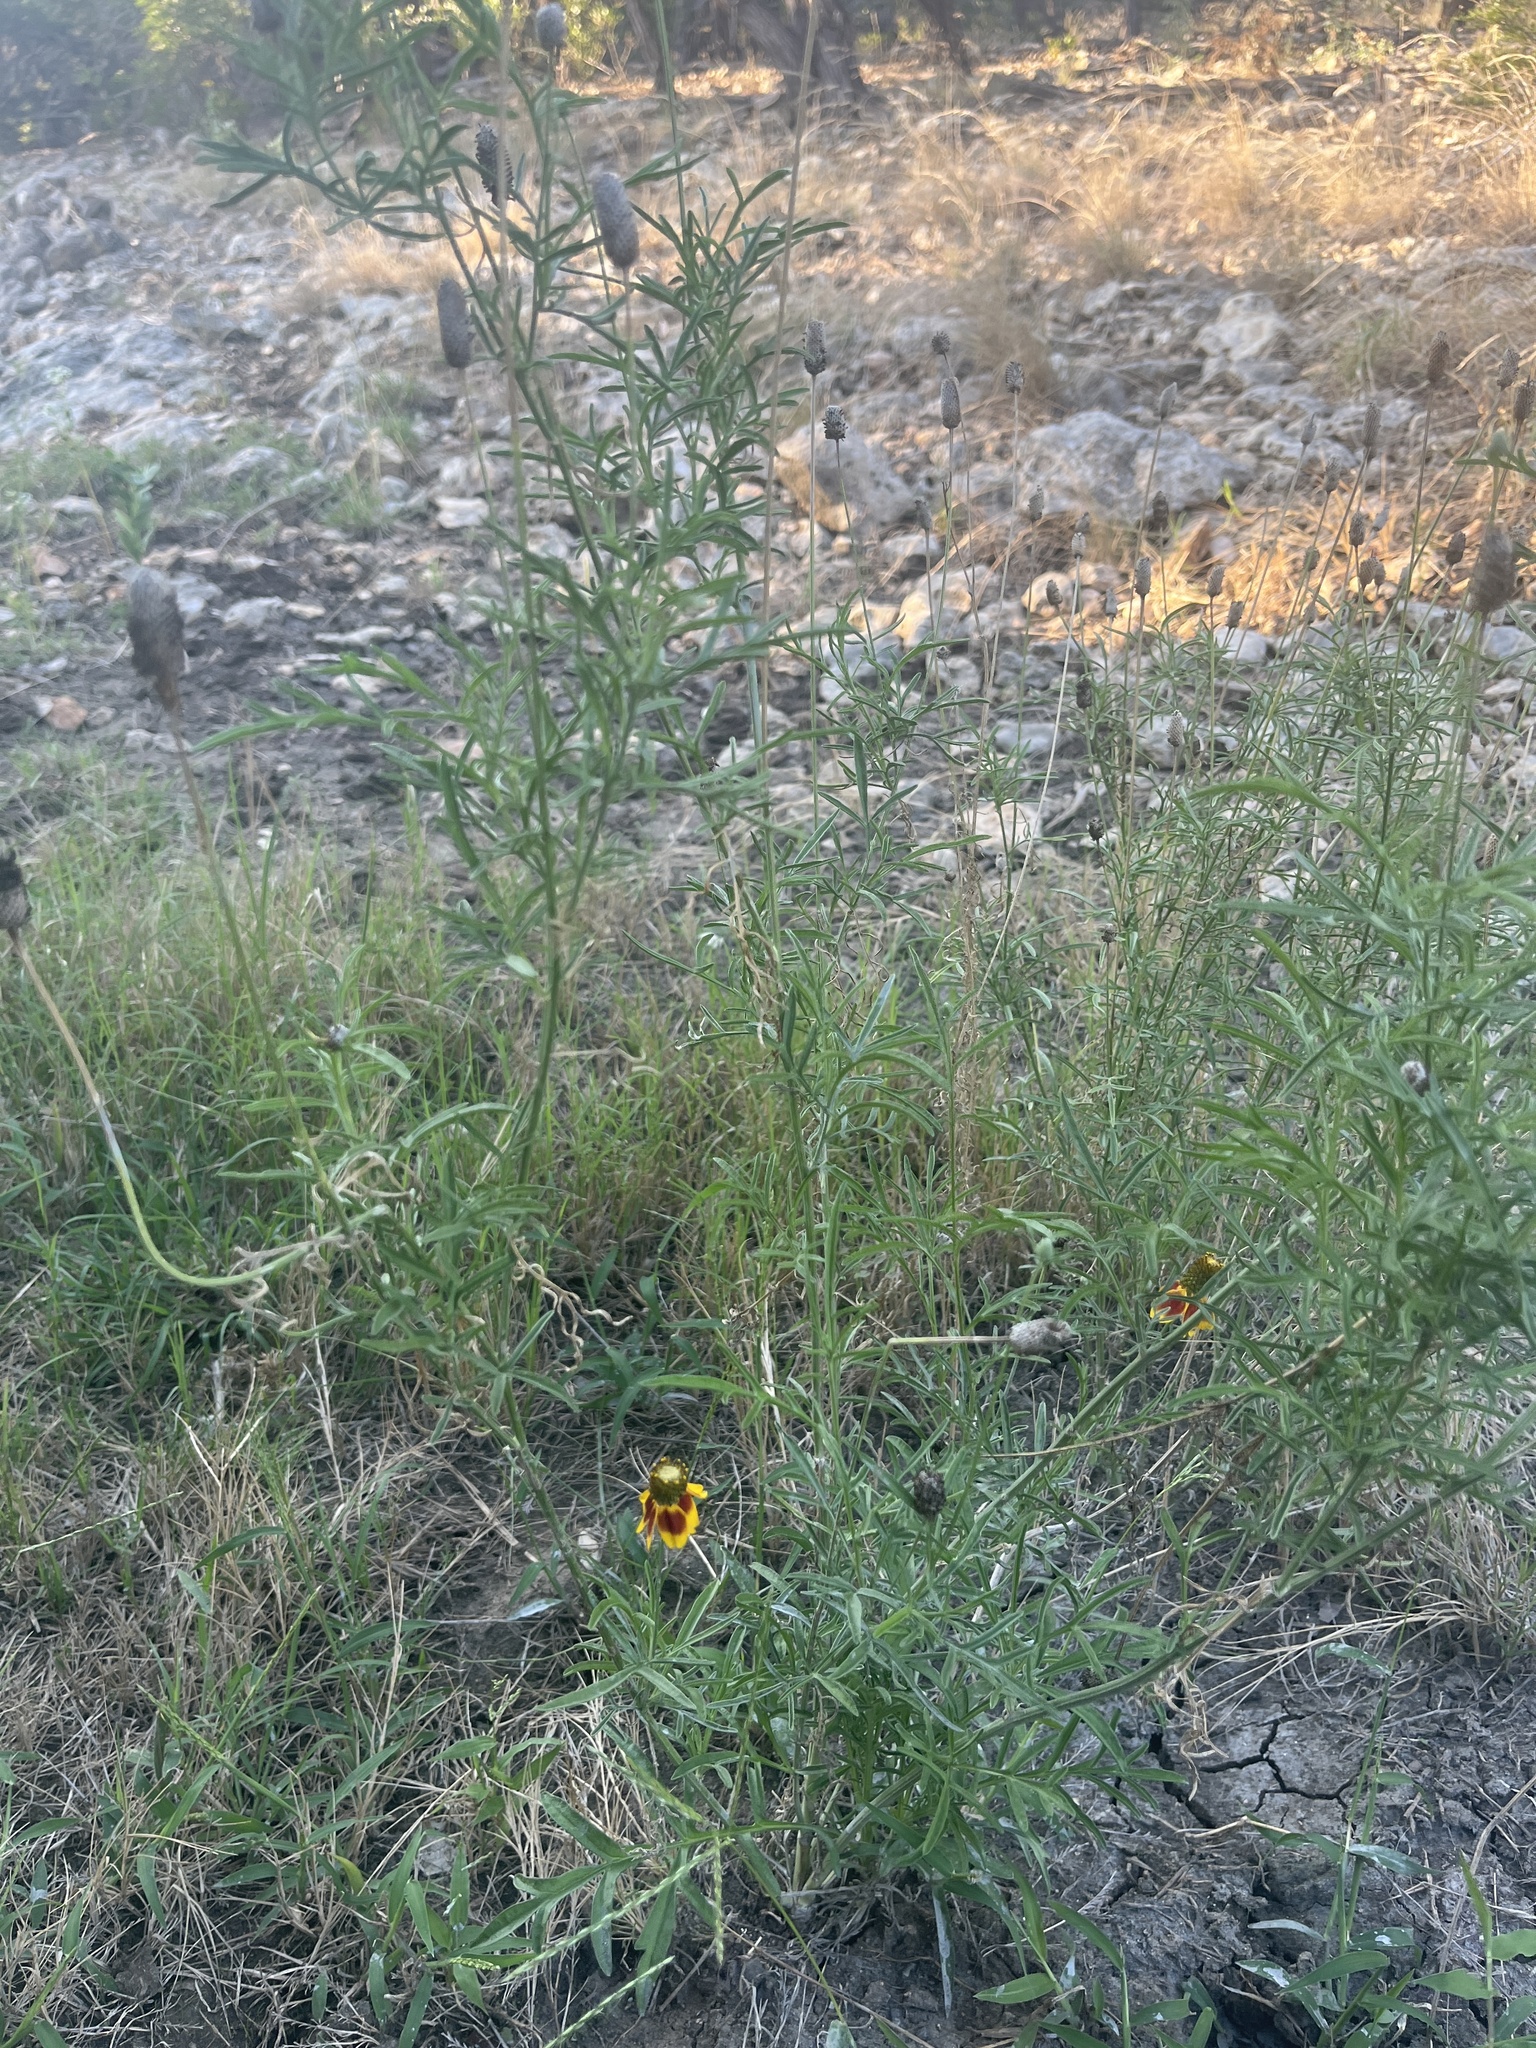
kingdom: Plantae
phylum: Tracheophyta
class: Magnoliopsida
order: Asterales
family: Asteraceae
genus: Ratibida
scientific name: Ratibida columnifera
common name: Prairie coneflower
